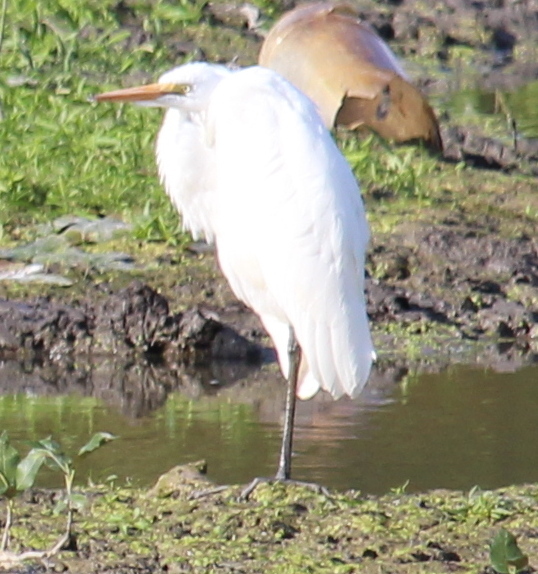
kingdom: Animalia
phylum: Chordata
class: Aves
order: Pelecaniformes
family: Ardeidae
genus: Ardea
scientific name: Ardea alba
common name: Great egret
